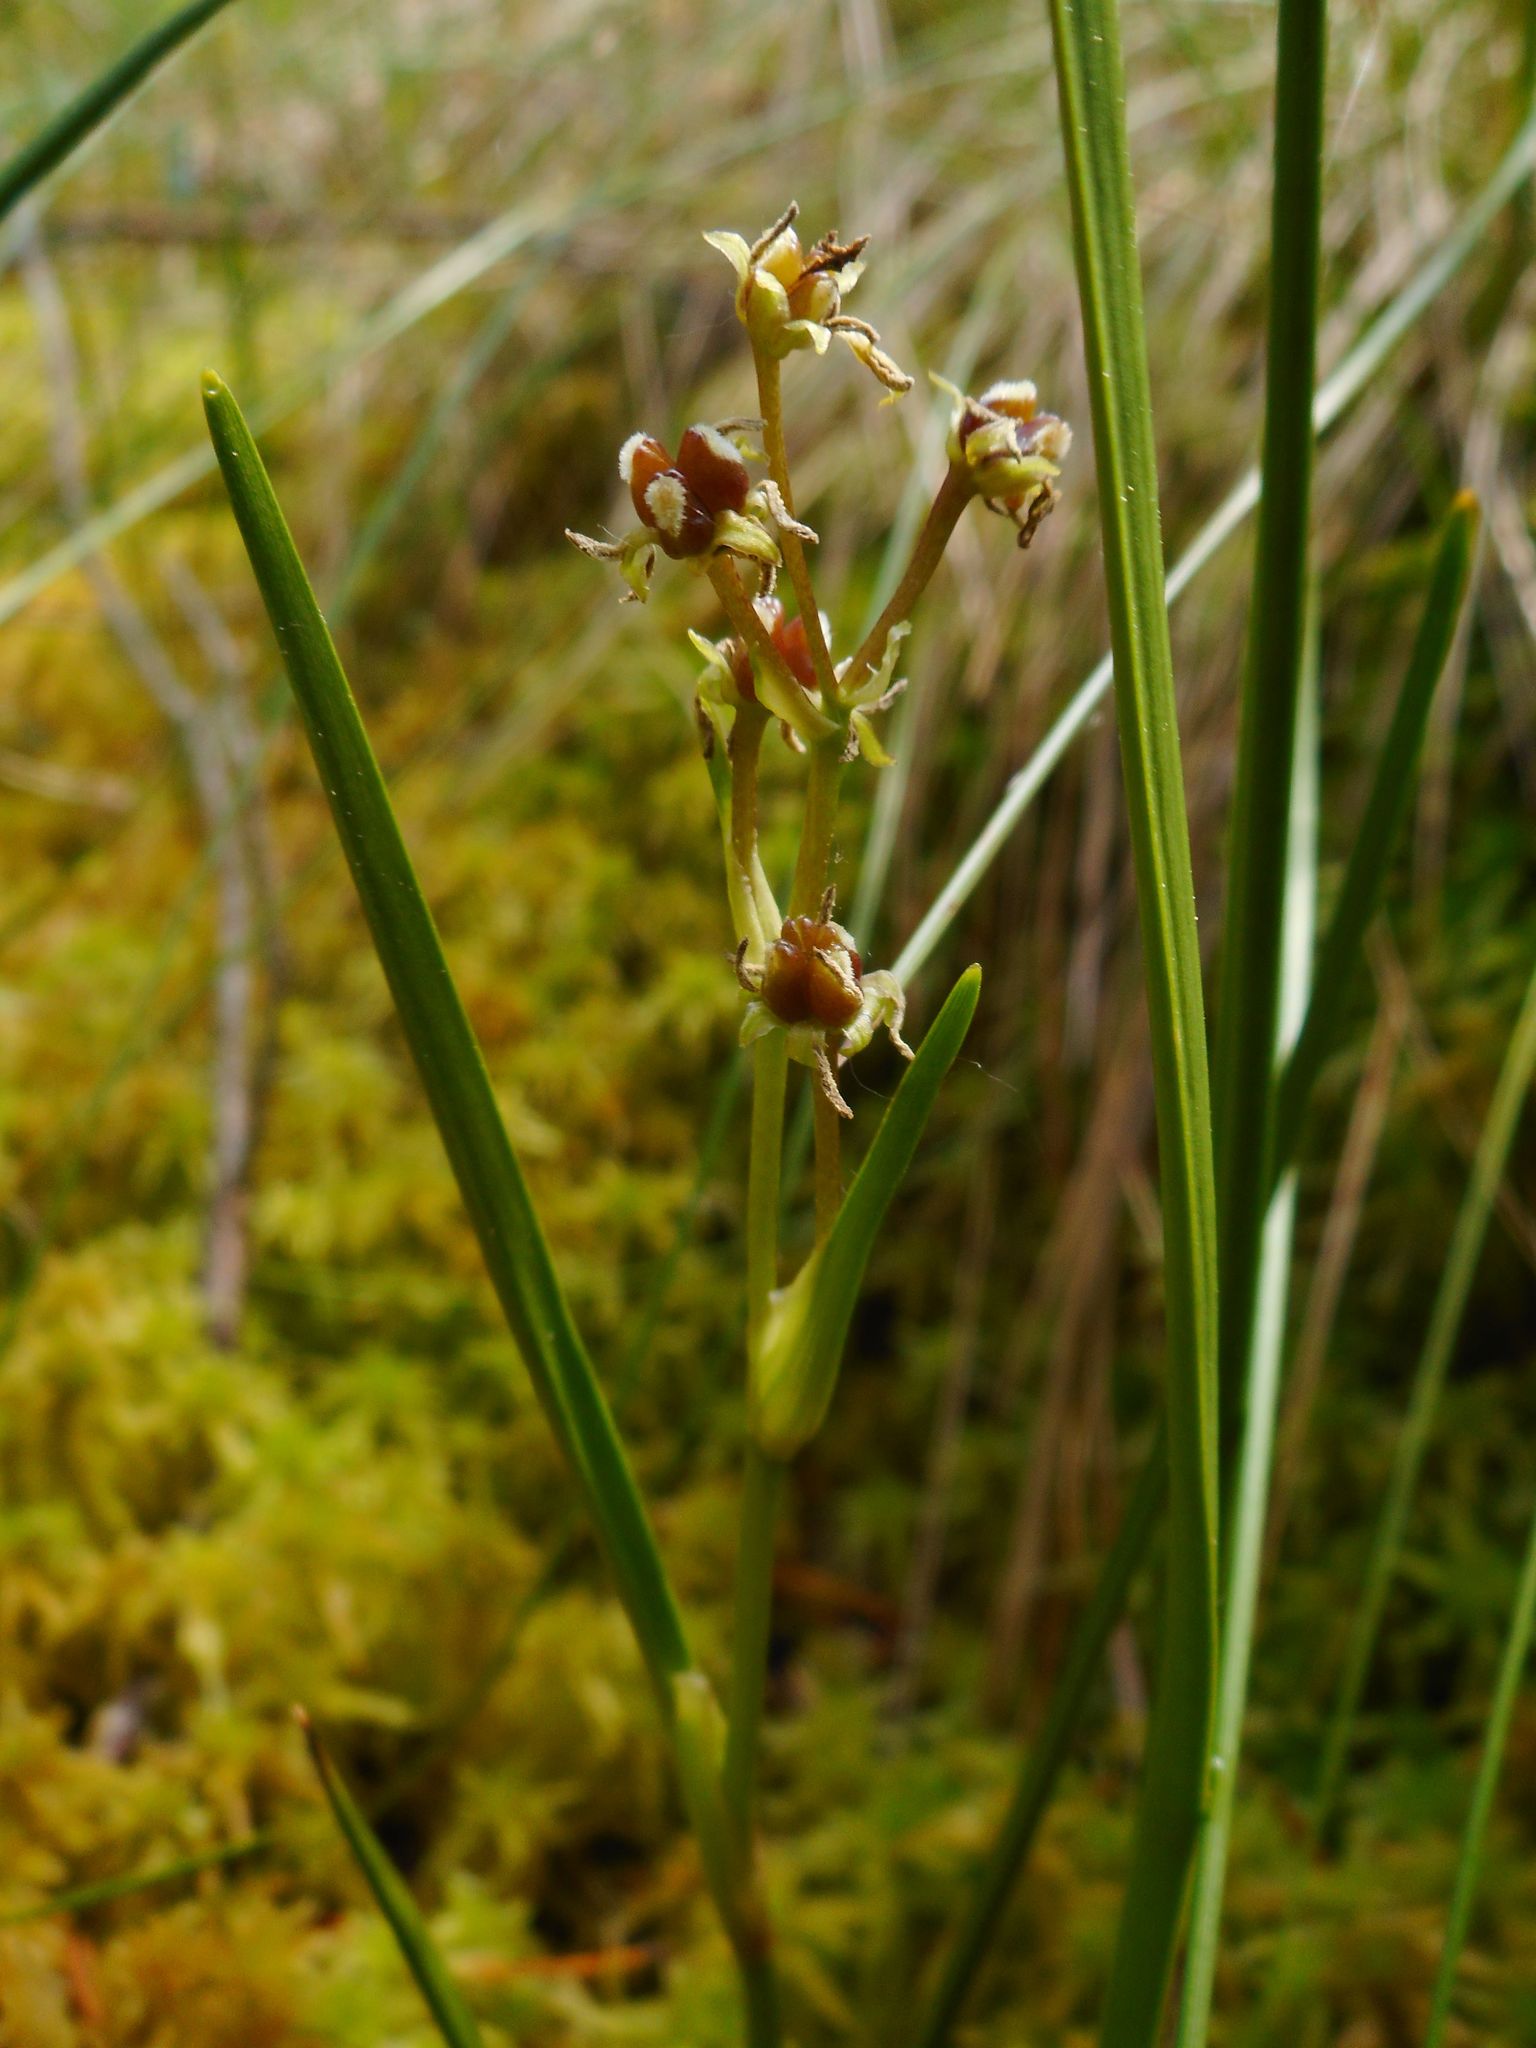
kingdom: Plantae
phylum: Tracheophyta
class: Liliopsida
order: Alismatales
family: Scheuchzeriaceae
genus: Scheuchzeria
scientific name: Scheuchzeria palustris
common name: Rannoch-rush
